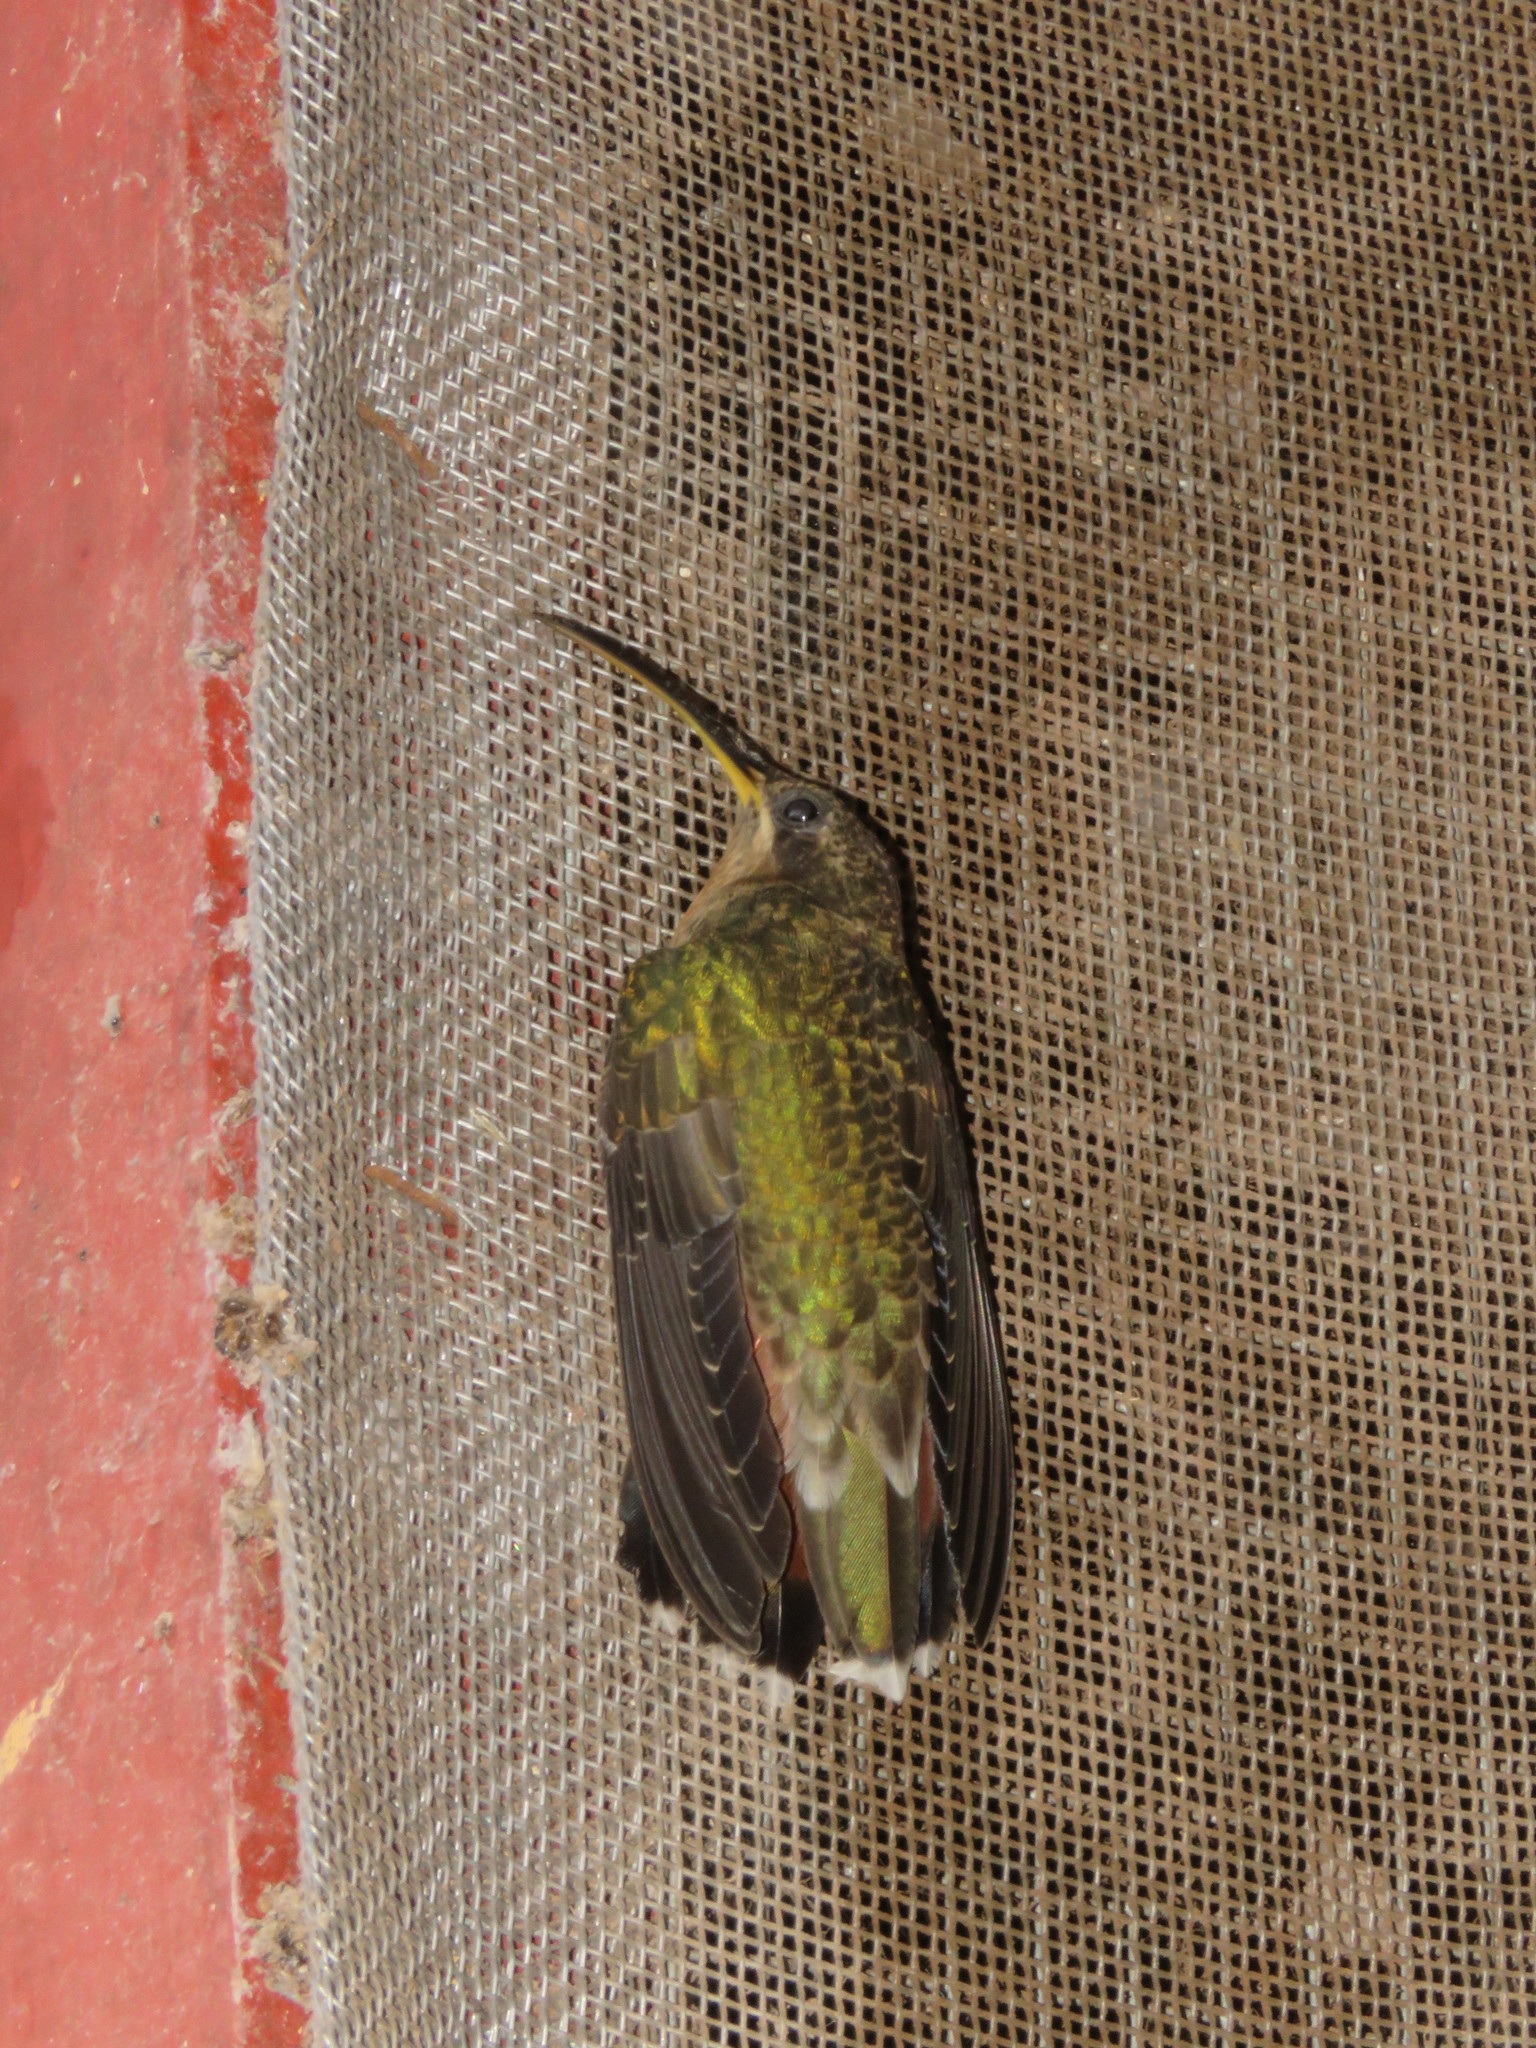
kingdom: Animalia
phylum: Chordata
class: Aves
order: Apodiformes
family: Trochilidae
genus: Glaucis
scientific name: Glaucis hirsutus
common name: Rufous-breasted hermit
